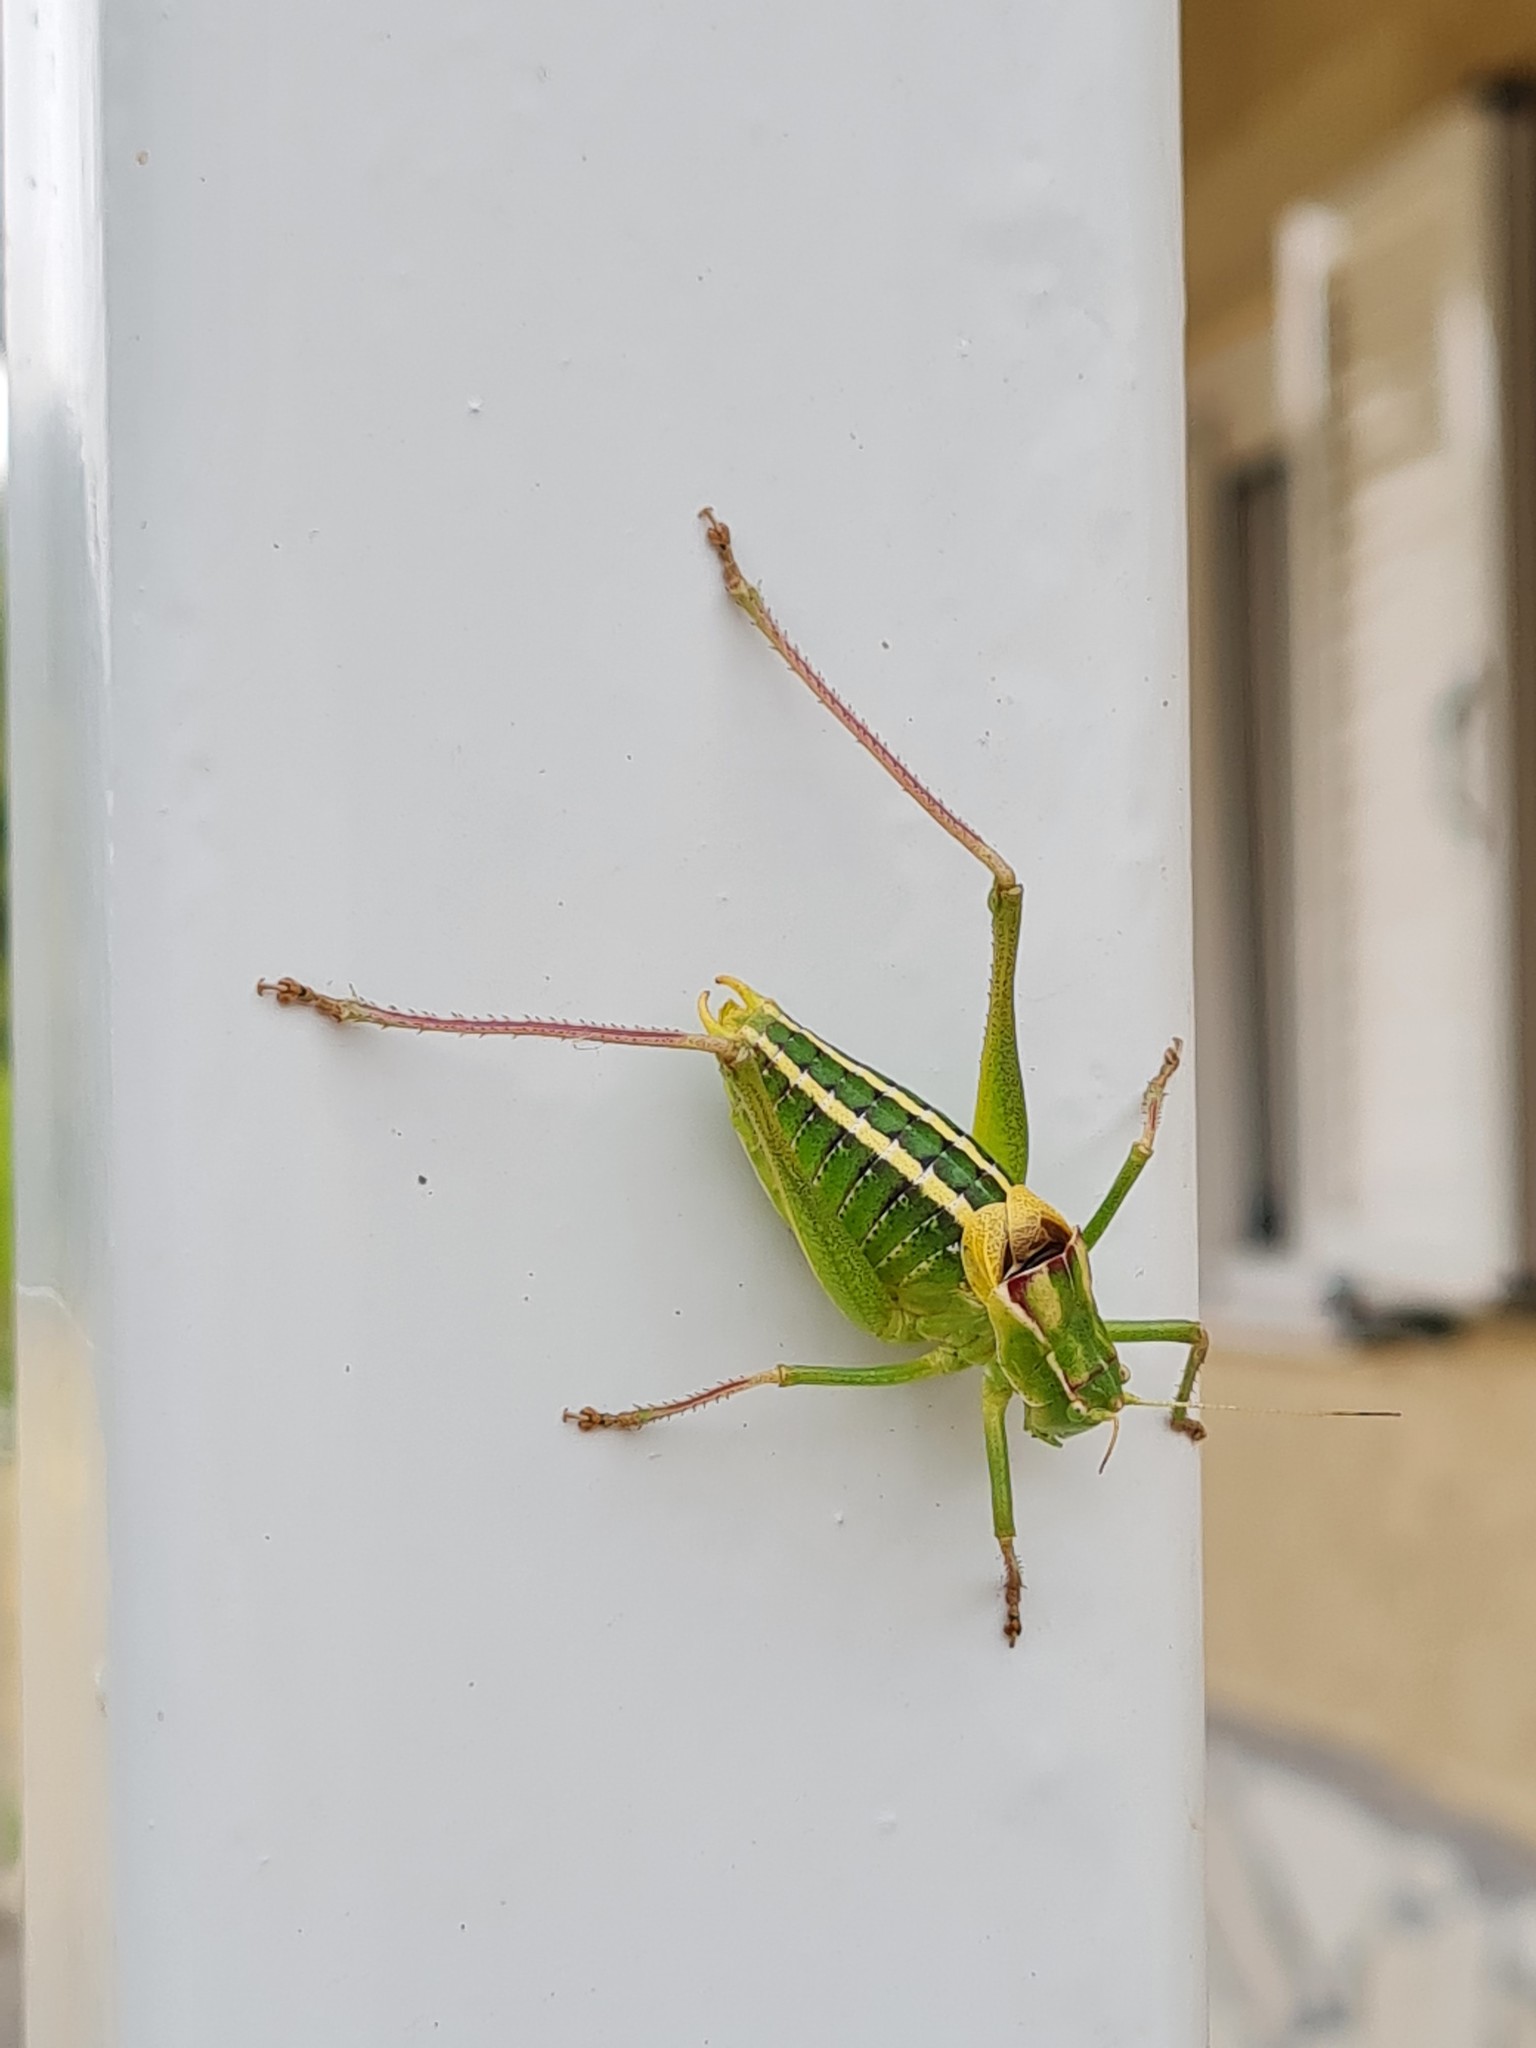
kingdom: Animalia
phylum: Arthropoda
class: Insecta
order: Orthoptera
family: Tettigoniidae
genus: Poecilimon
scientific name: Poecilimon artedentatus
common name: Pelopponesian bright bush-cricket
